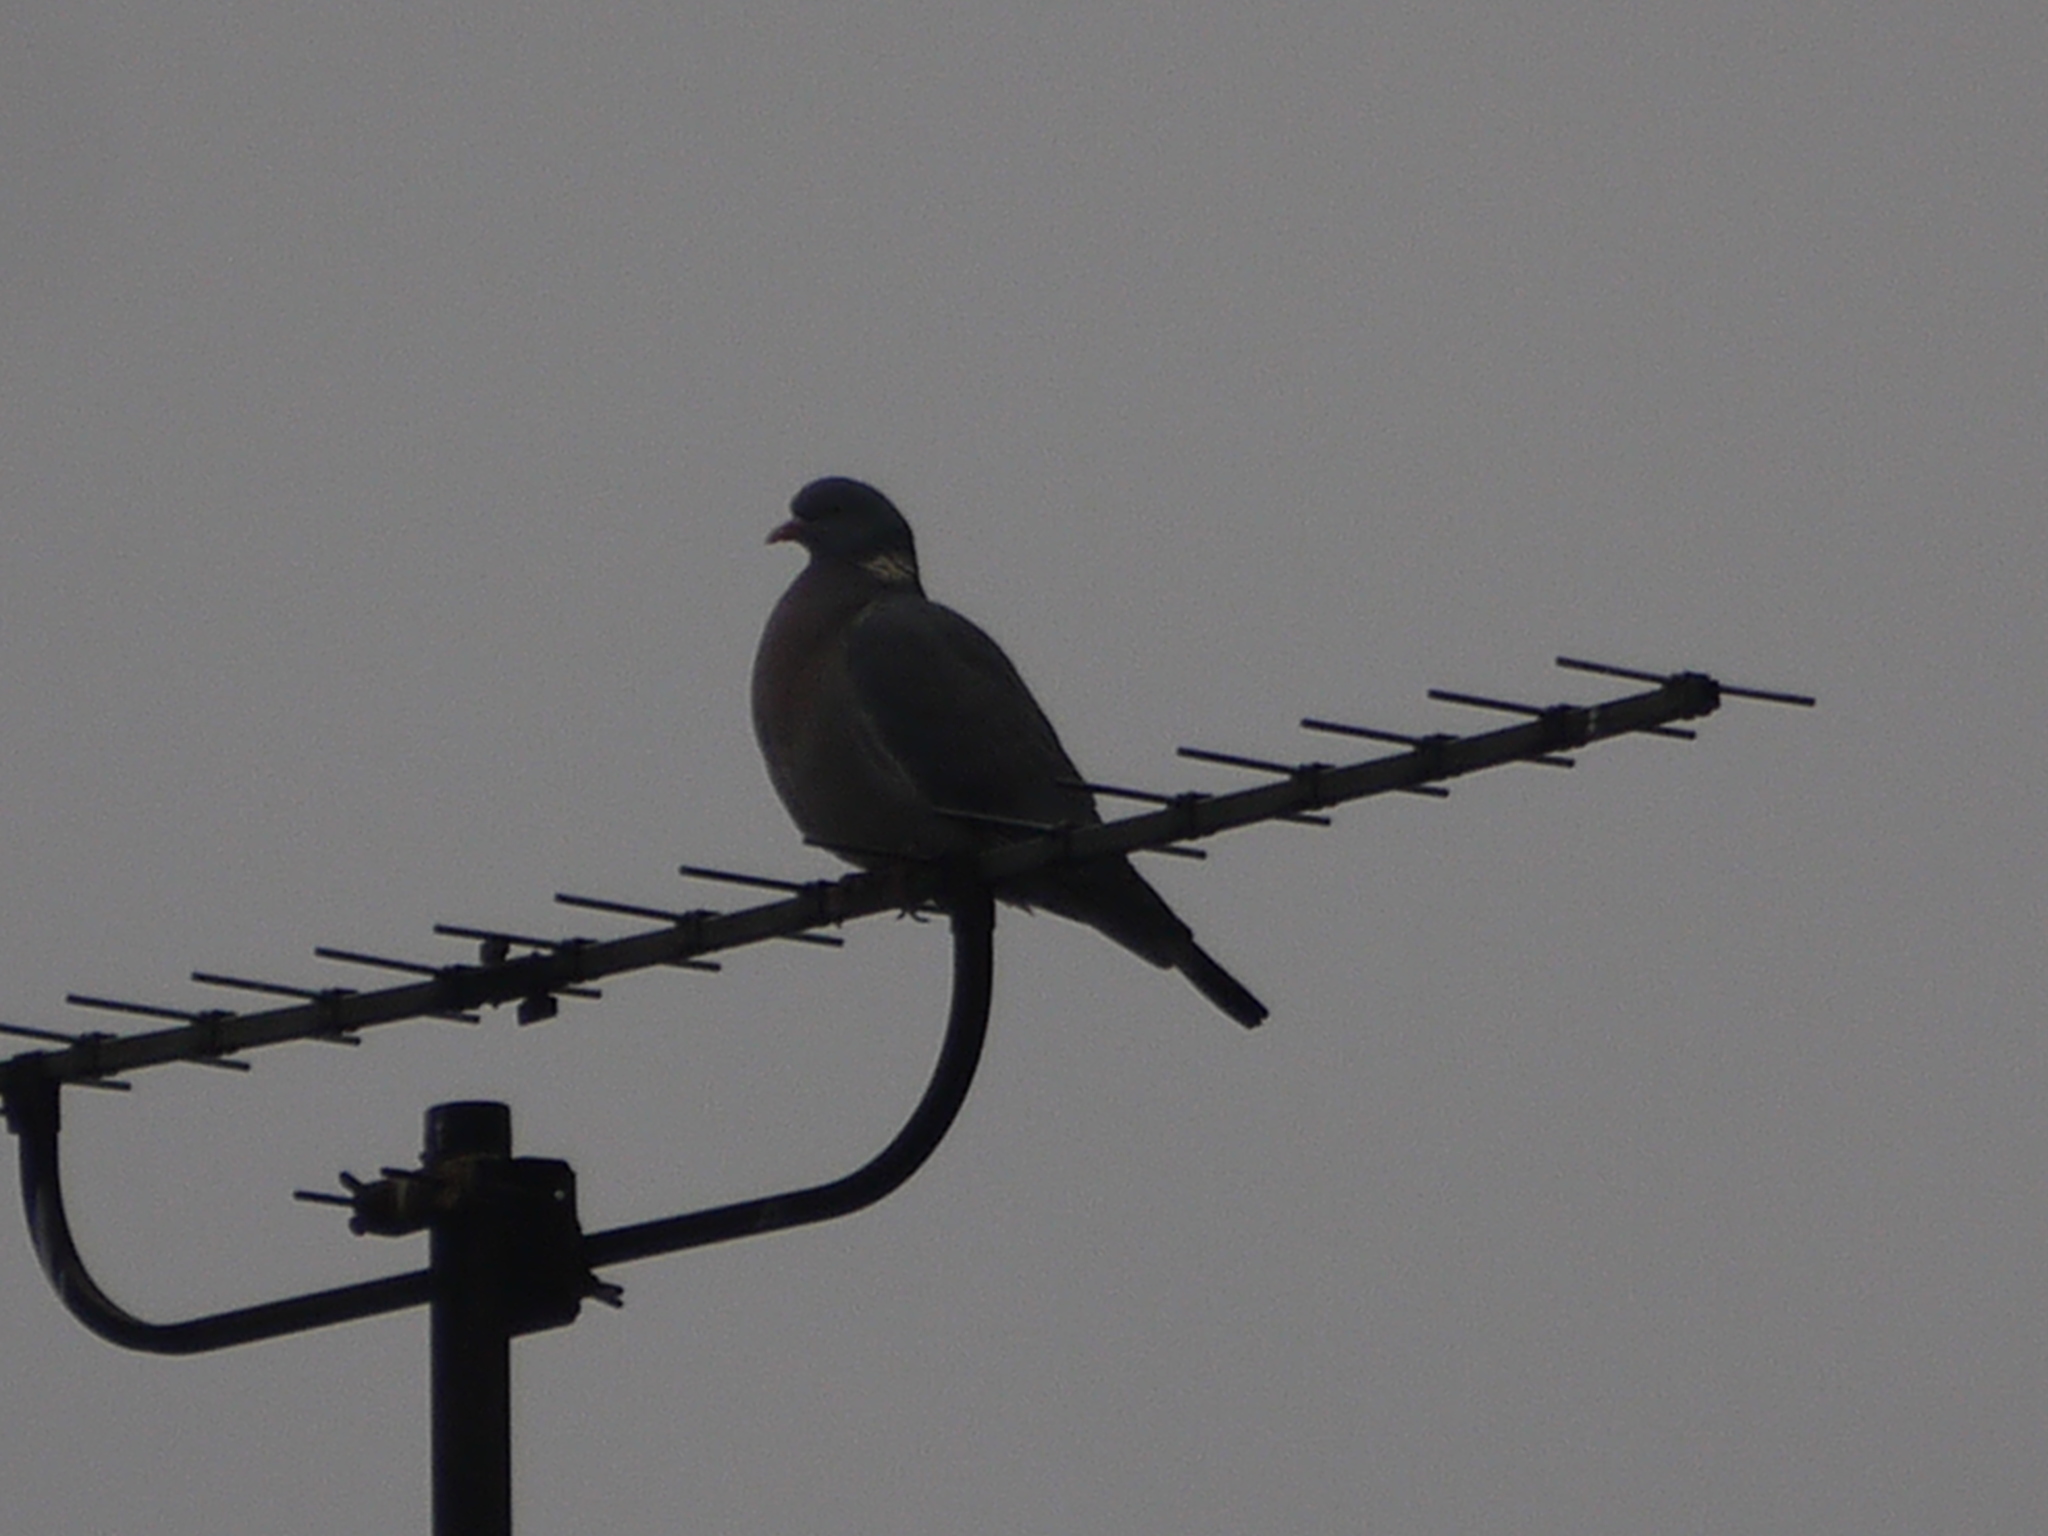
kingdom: Animalia
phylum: Chordata
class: Aves
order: Columbiformes
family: Columbidae
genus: Columba
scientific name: Columba palumbus
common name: Common wood pigeon
